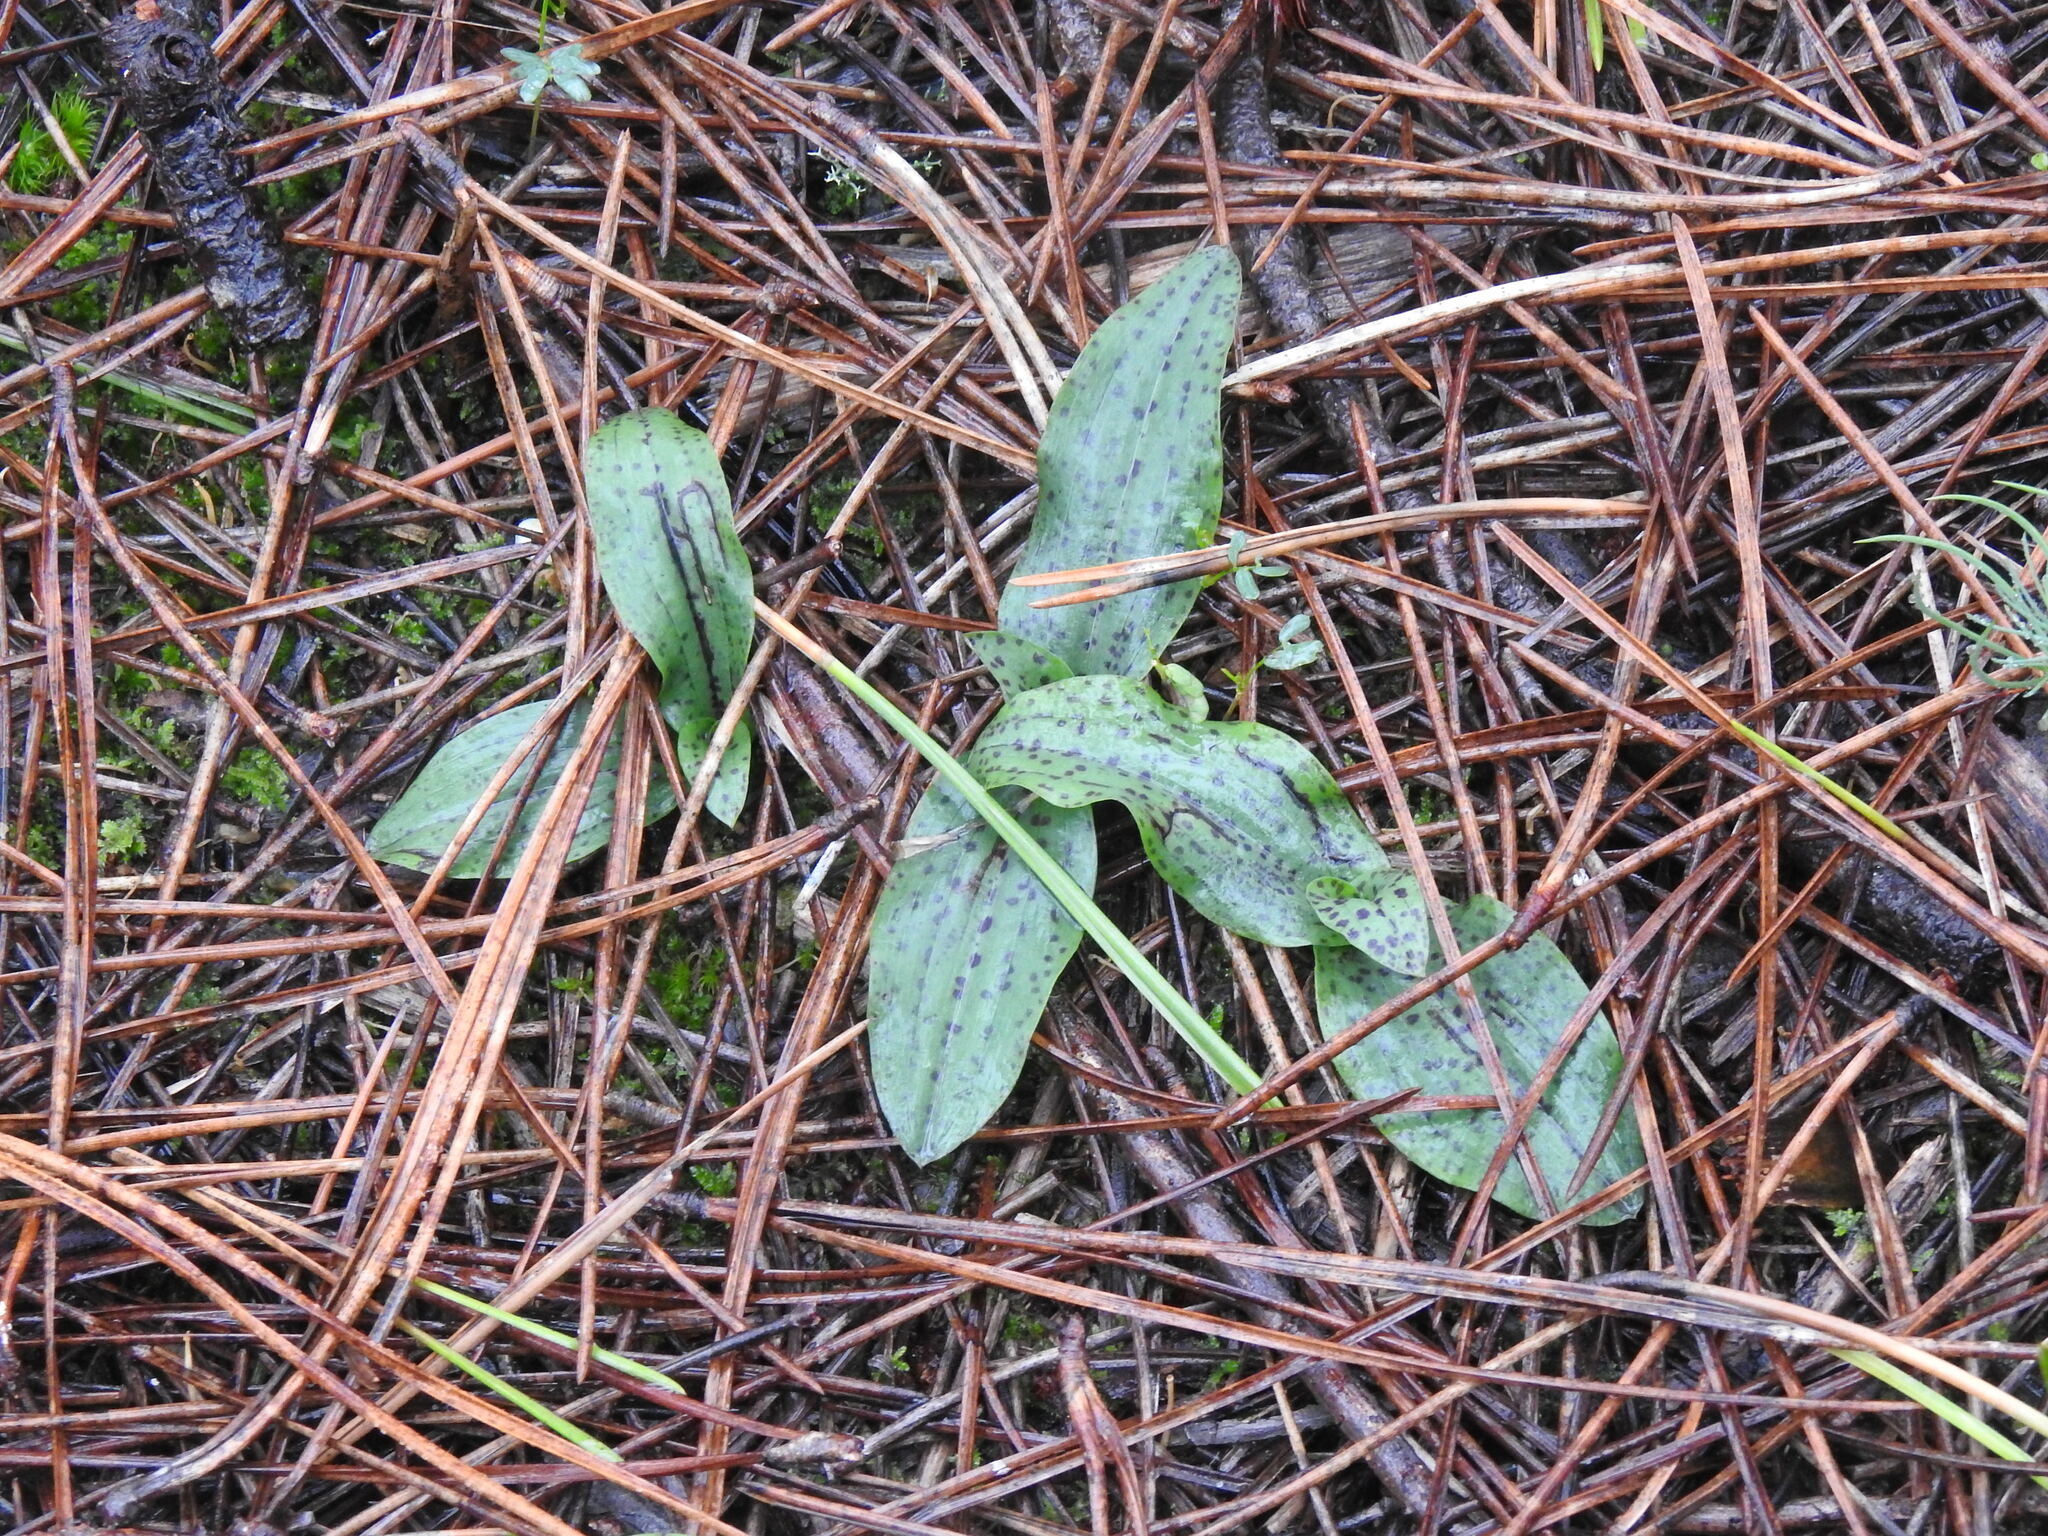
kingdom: Plantae
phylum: Tracheophyta
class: Liliopsida
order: Asparagales
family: Orchidaceae
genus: Neotinea
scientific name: Neotinea maculata
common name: Dense-flowered orchid
